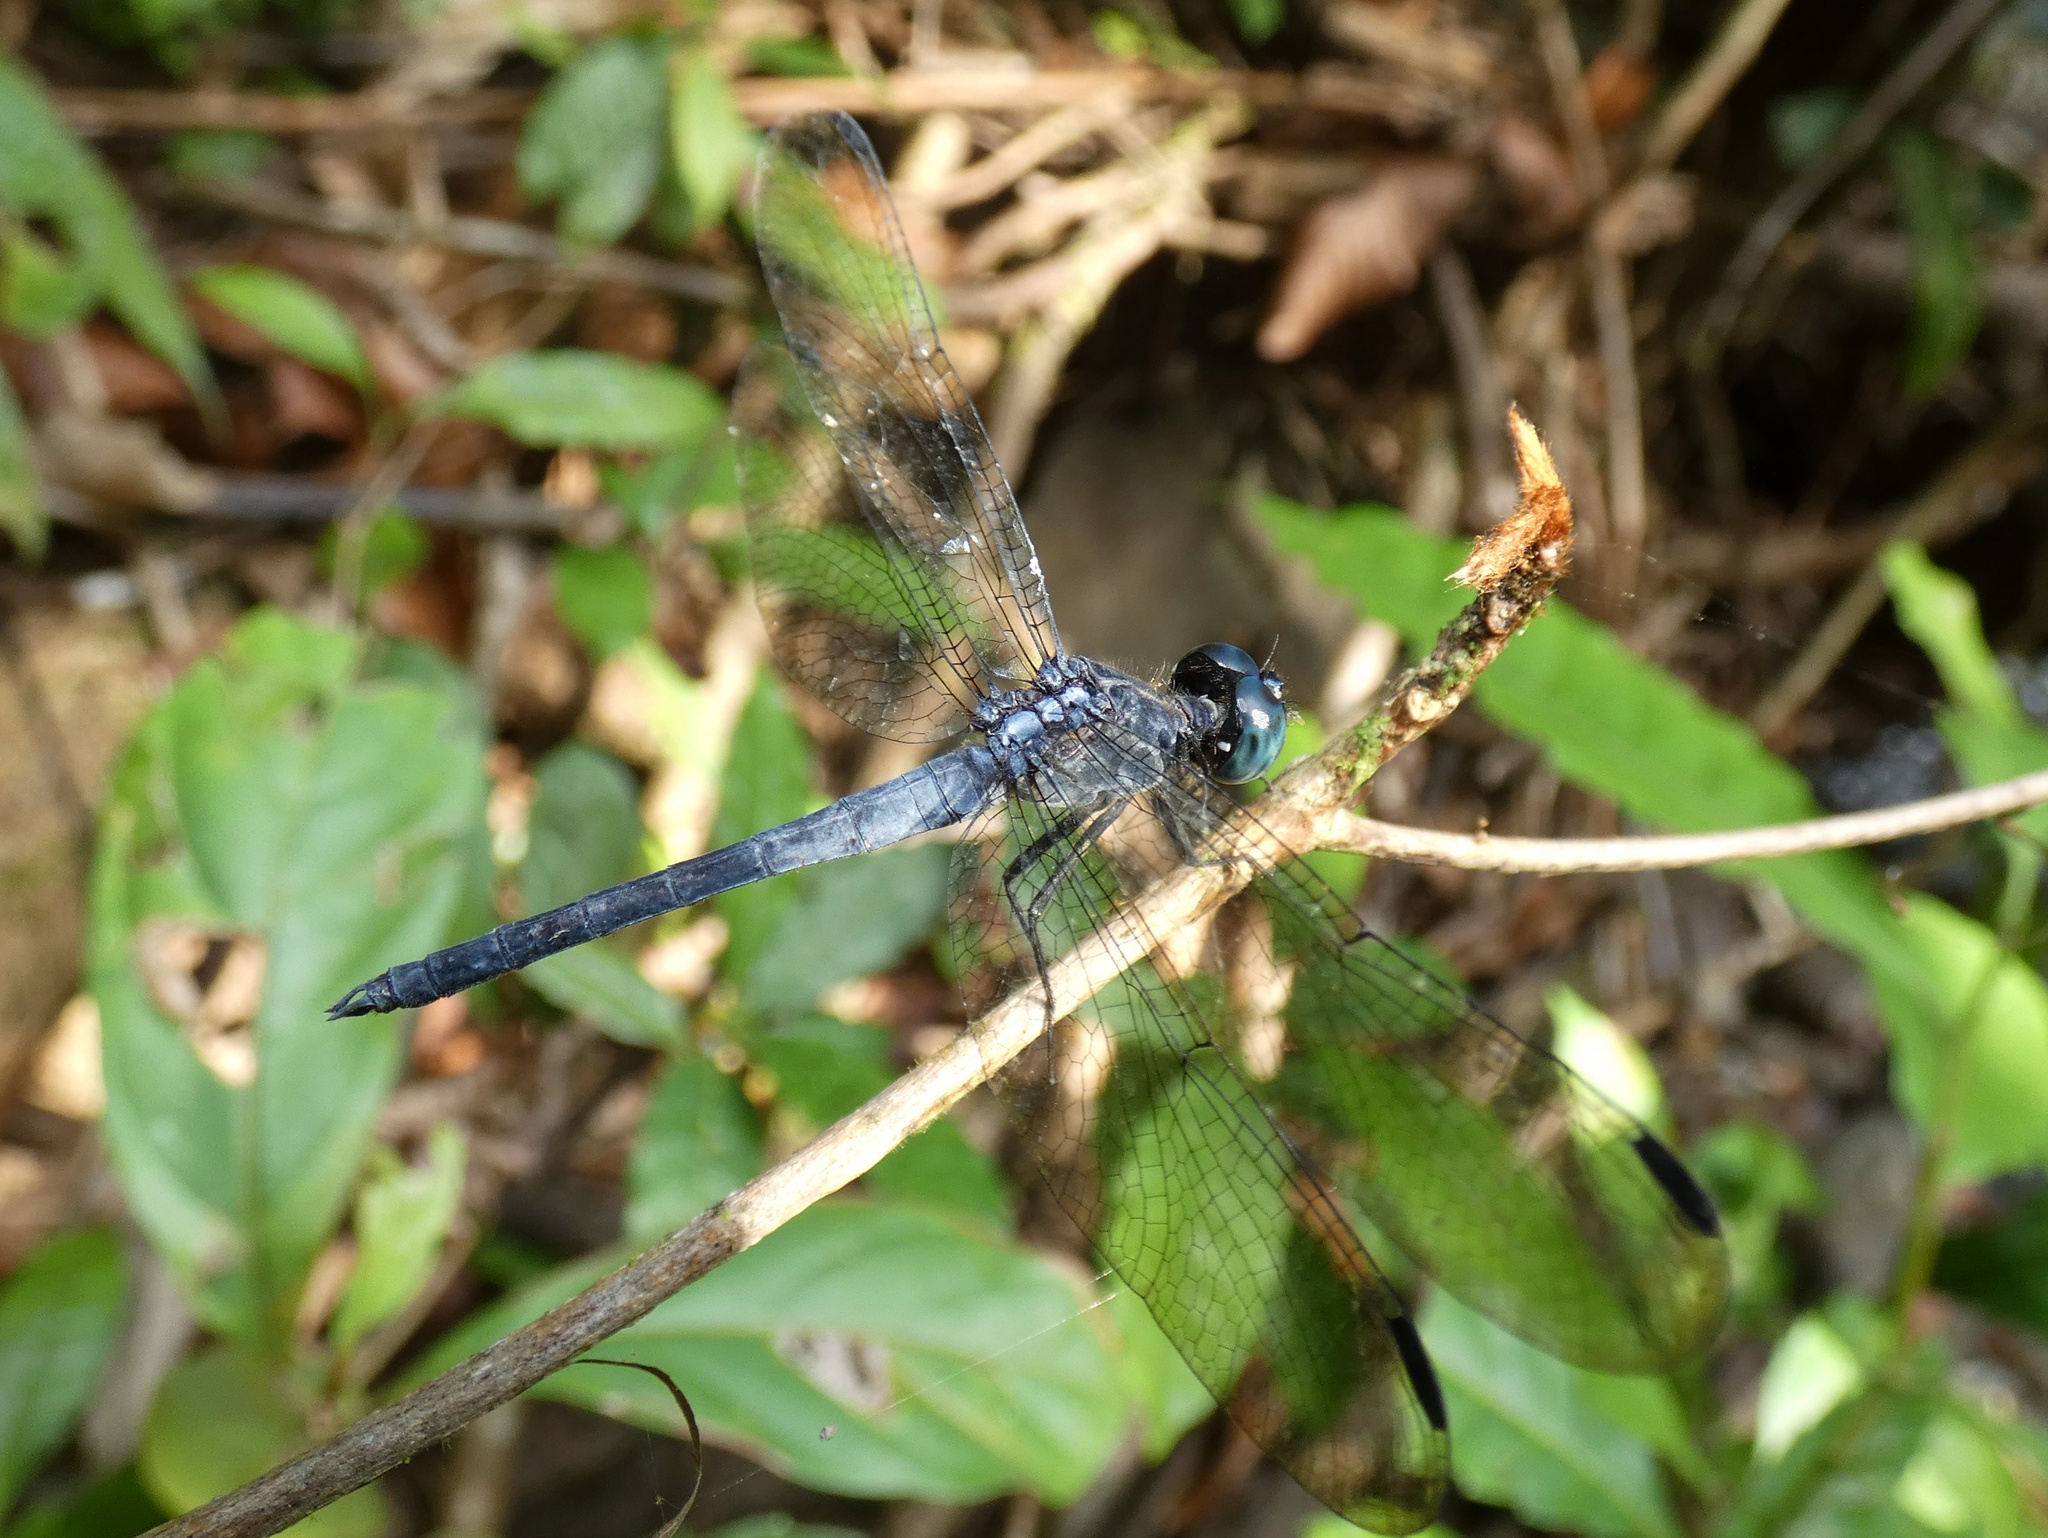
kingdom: Animalia
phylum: Arthropoda
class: Insecta
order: Odonata
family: Libellulidae
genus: Cannaphila
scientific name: Cannaphila mortoni
